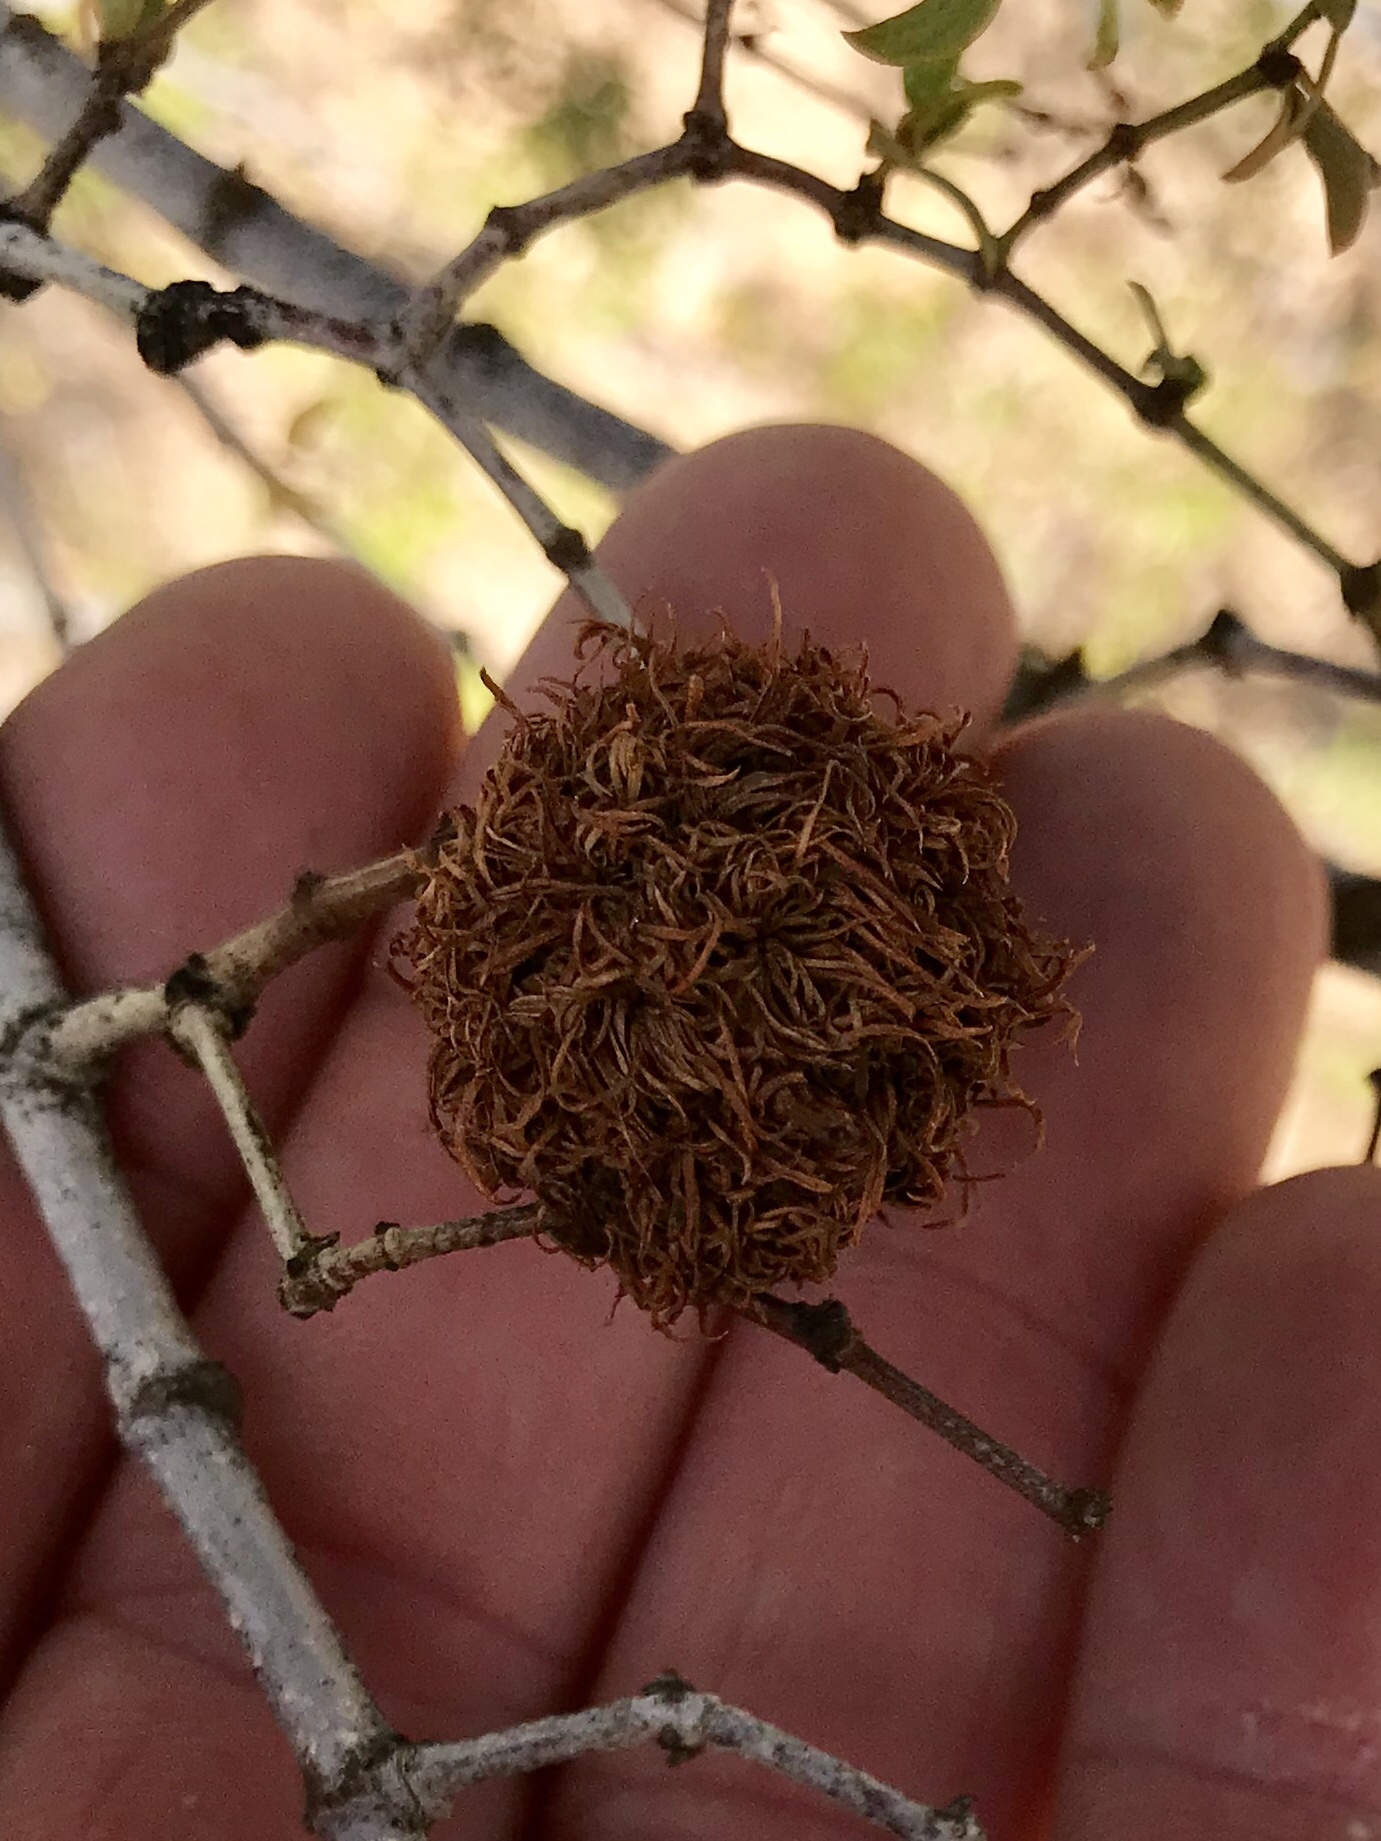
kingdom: Animalia
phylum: Arthropoda
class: Insecta
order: Diptera
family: Cecidomyiidae
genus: Asphondylia
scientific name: Asphondylia auripila
